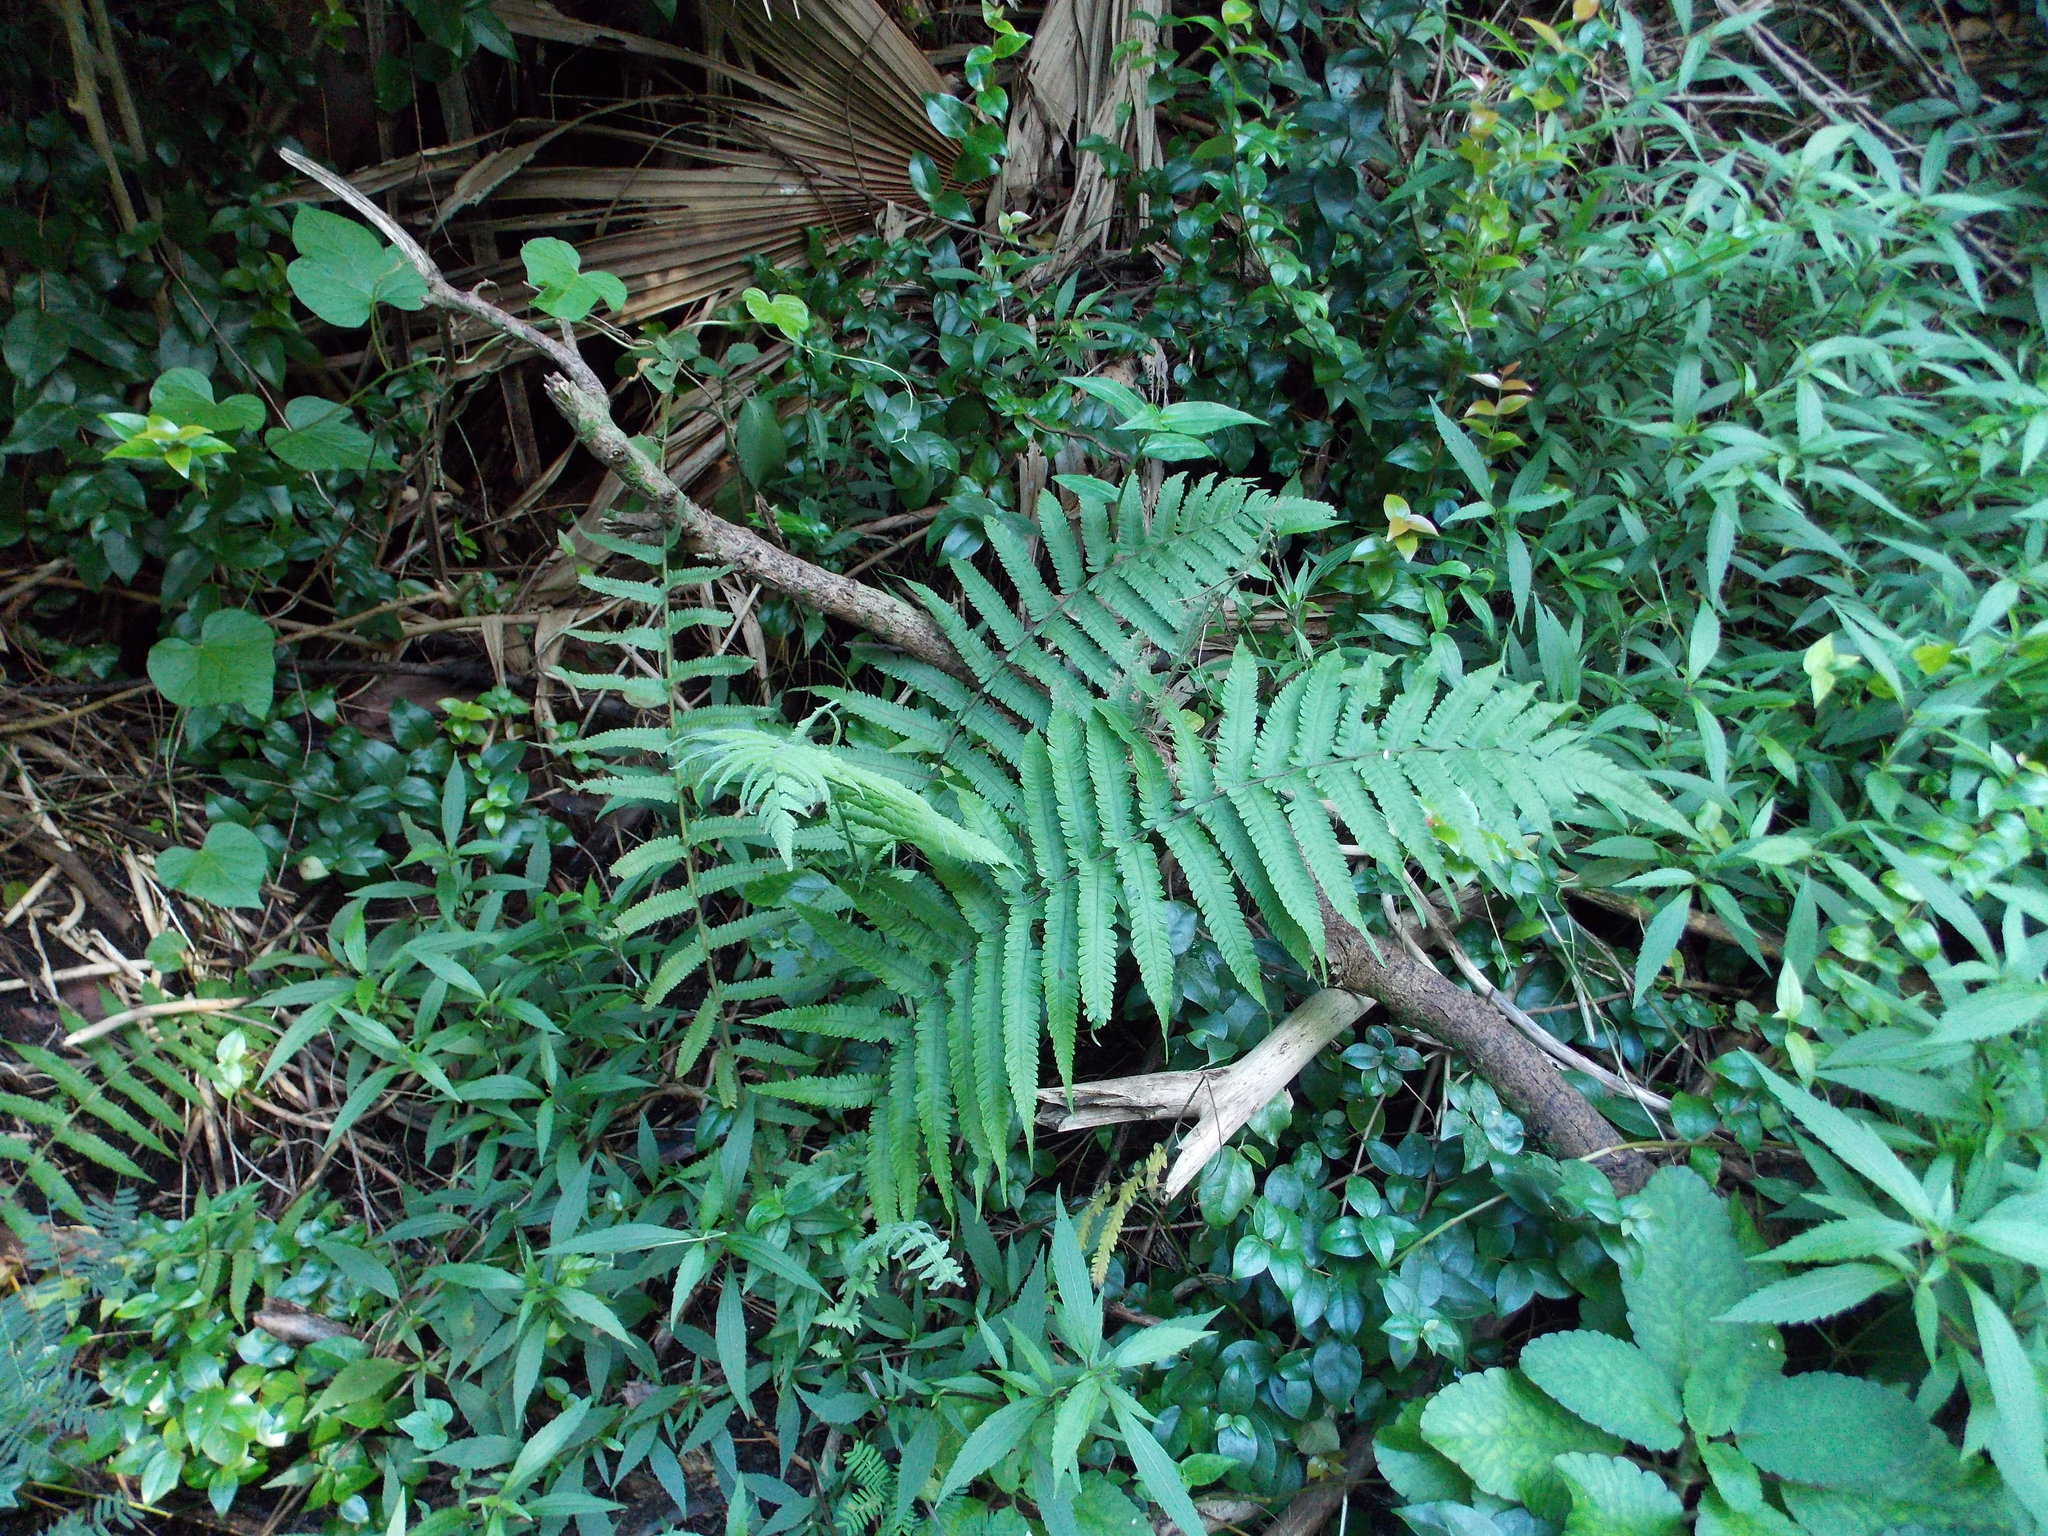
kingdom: Plantae
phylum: Tracheophyta
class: Polypodiopsida
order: Polypodiales
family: Thelypteridaceae
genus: Christella
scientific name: Christella dentata
